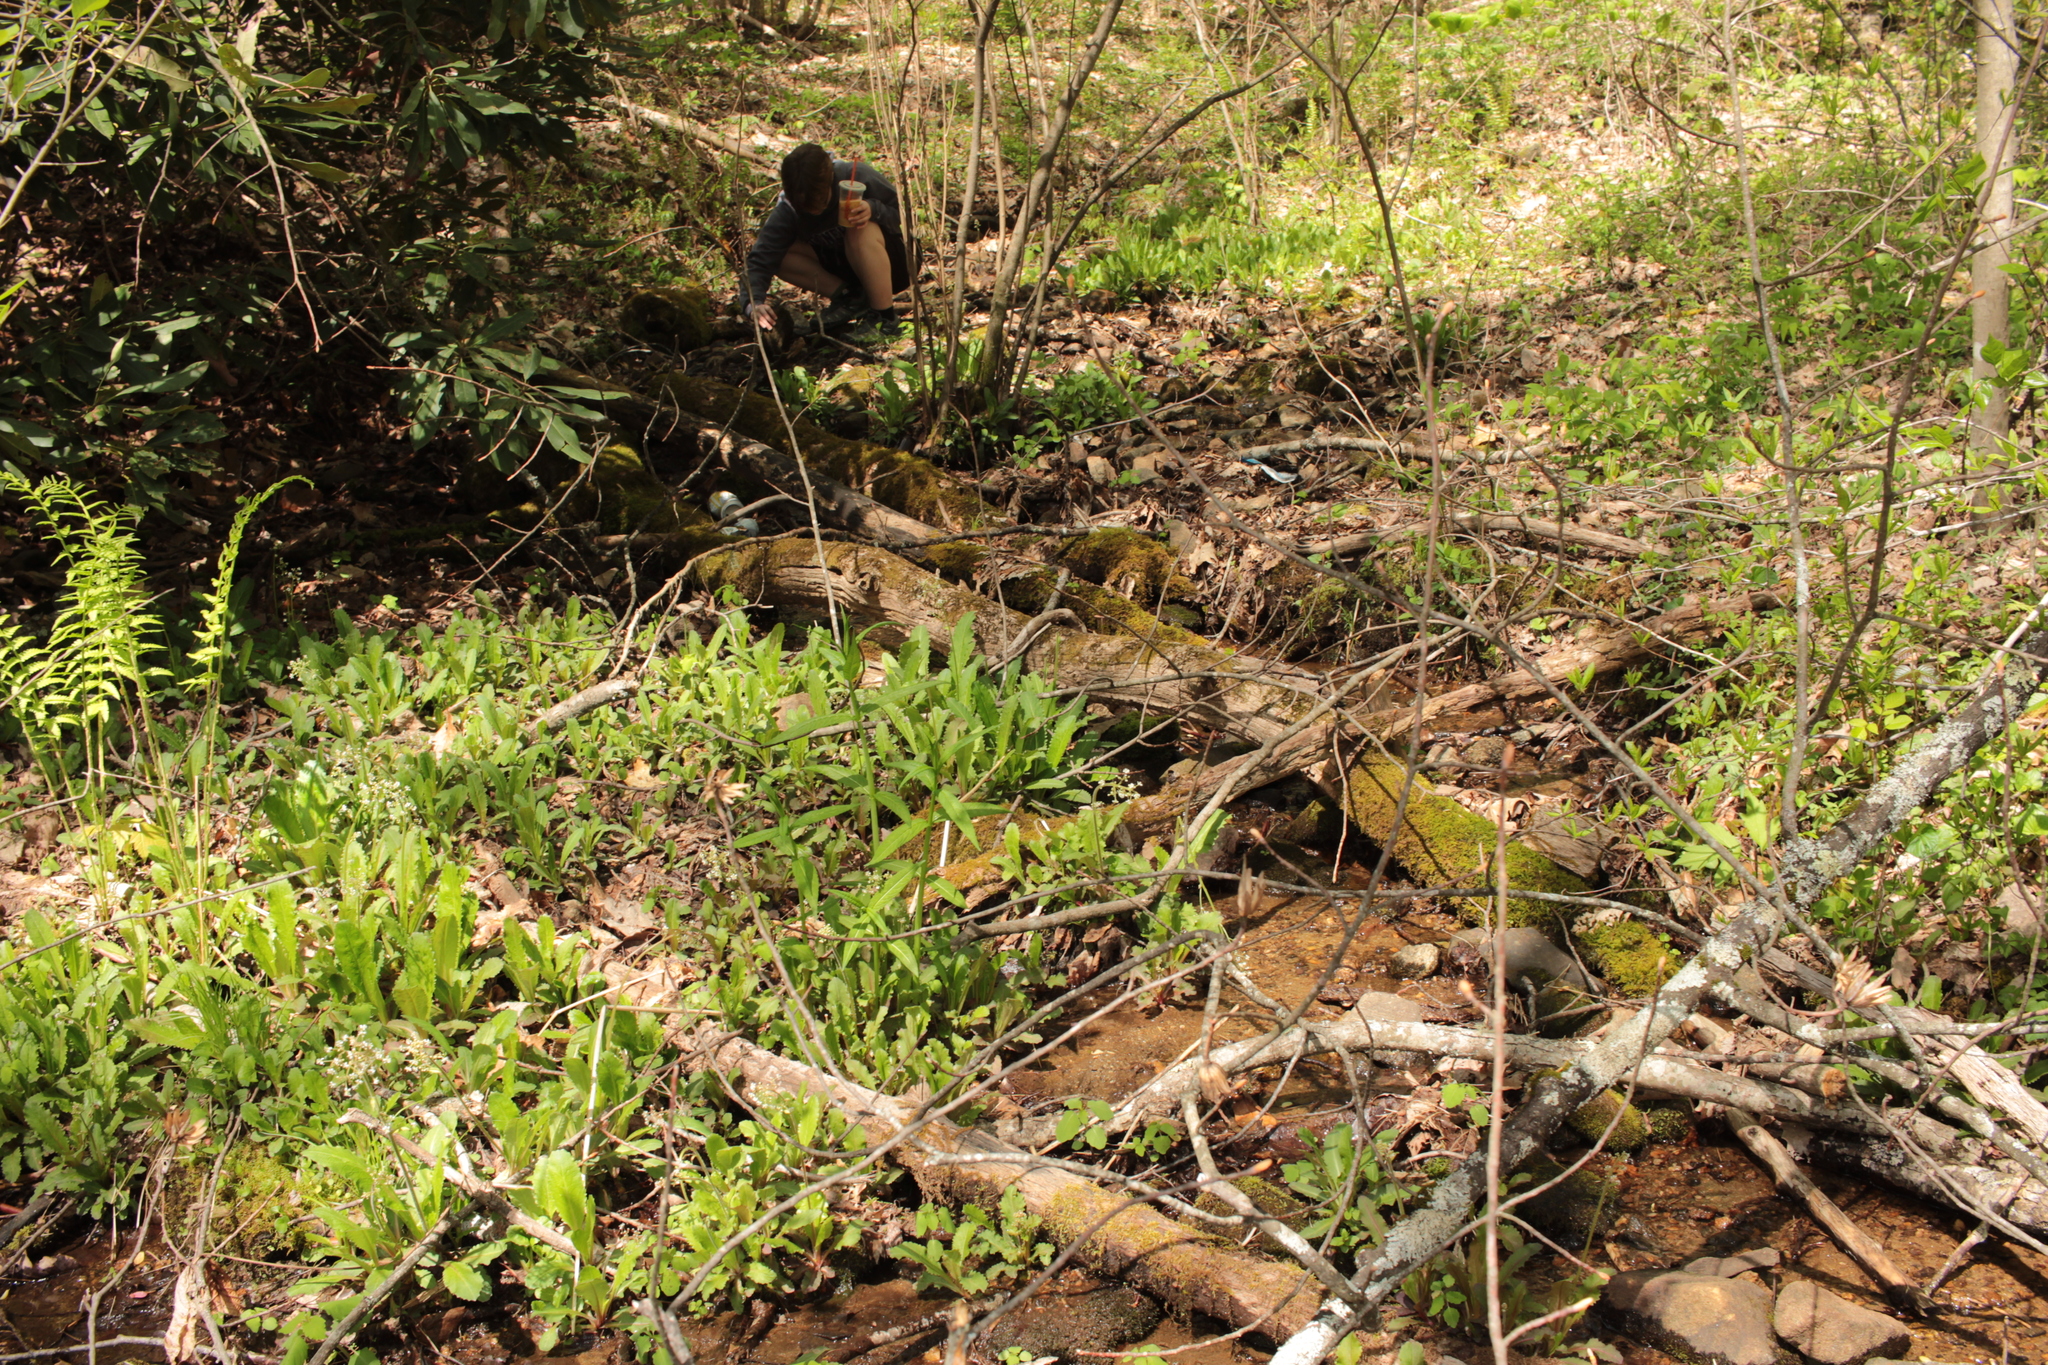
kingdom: Plantae
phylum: Tracheophyta
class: Magnoliopsida
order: Saxifragales
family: Saxifragaceae
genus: Micranthes
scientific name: Micranthes micranthidifolia
